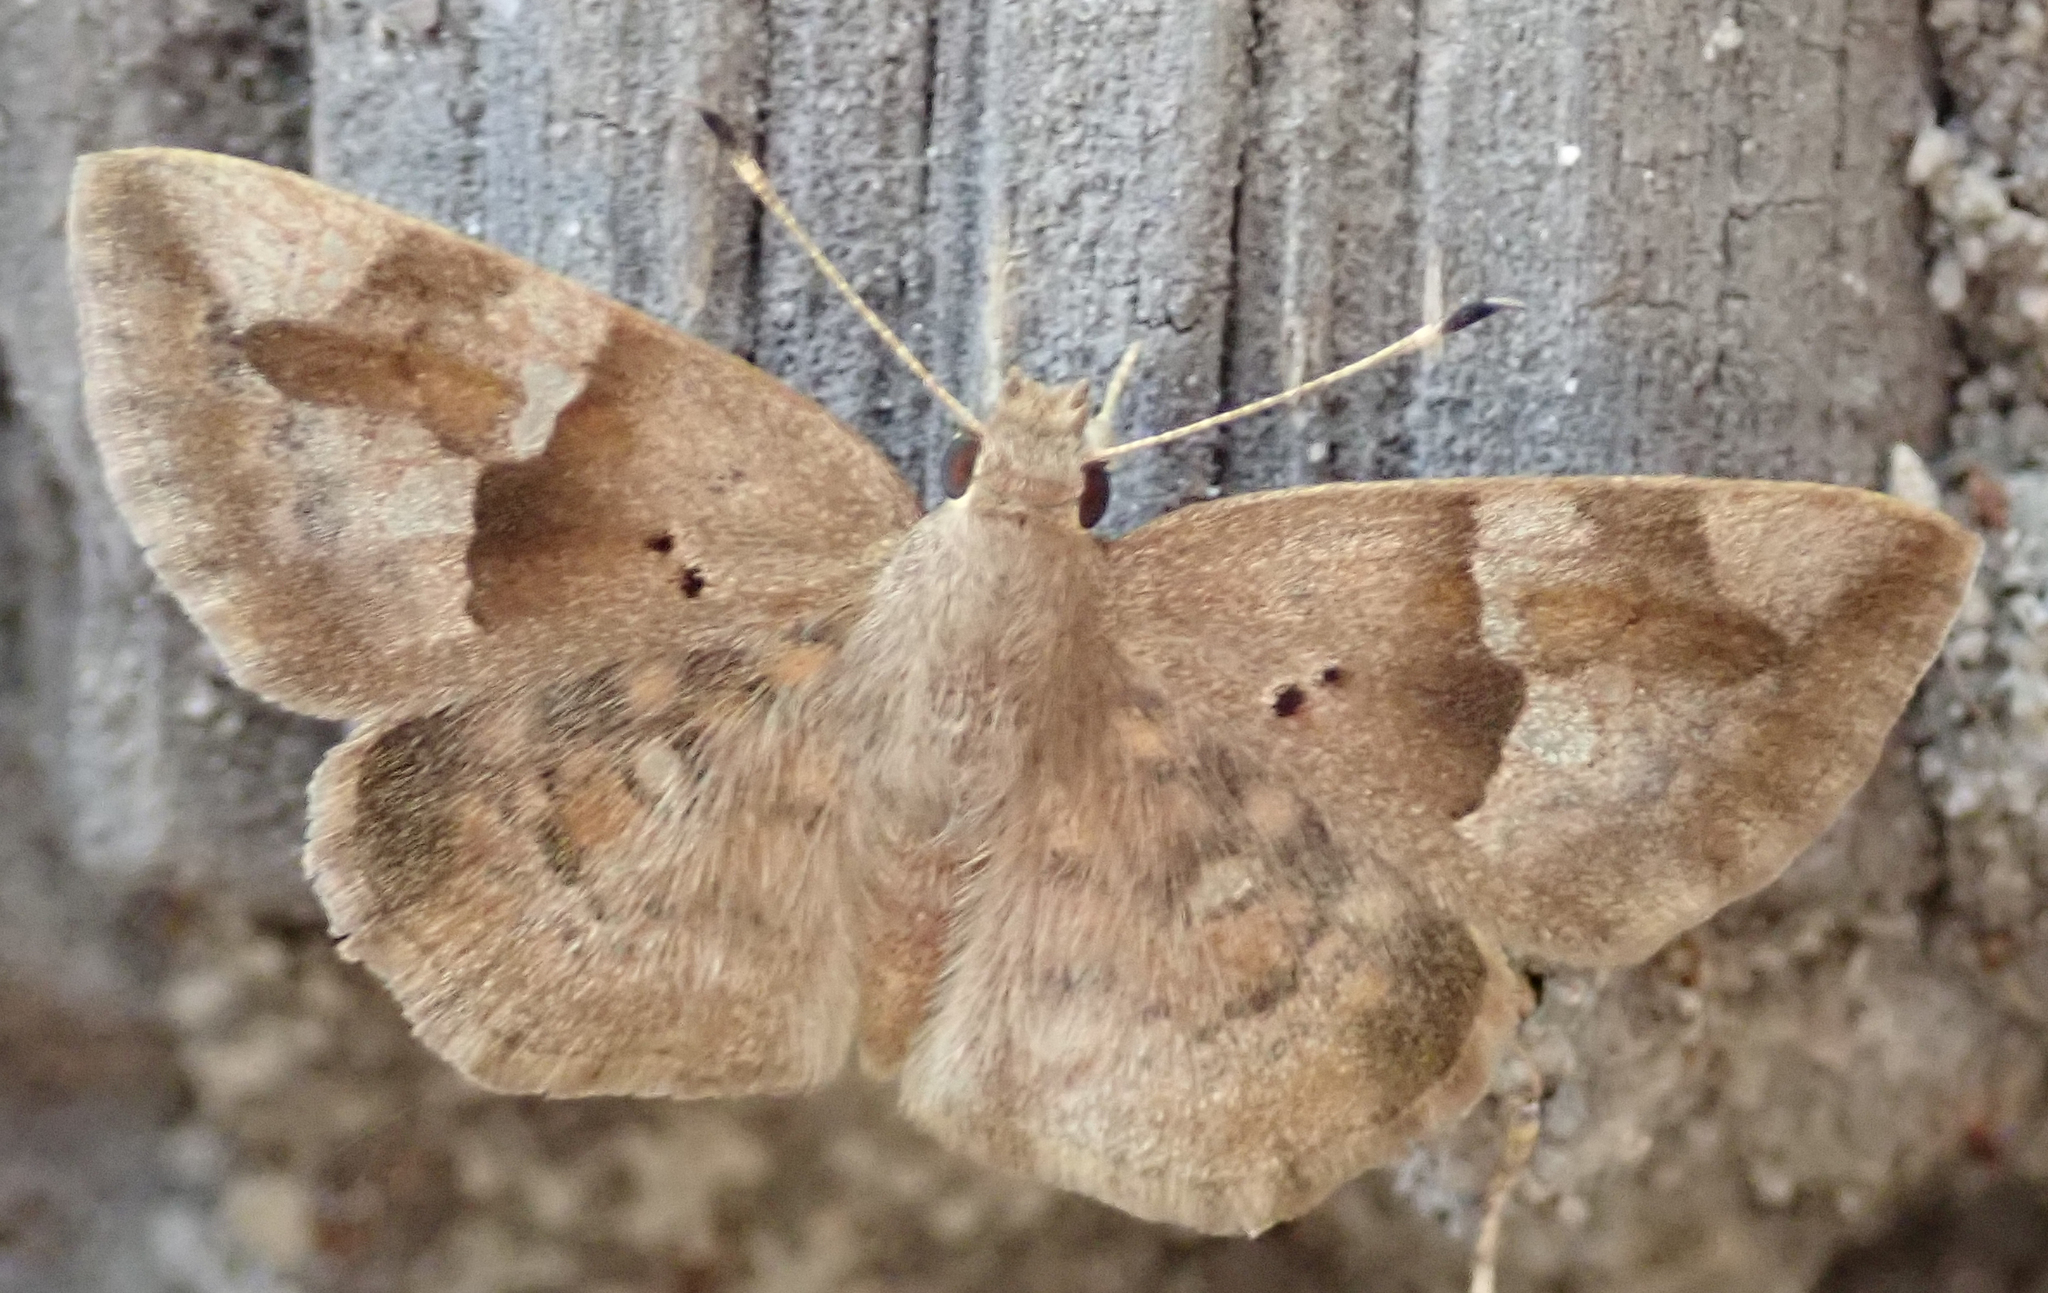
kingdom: Animalia
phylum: Arthropoda
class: Insecta
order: Lepidoptera
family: Hesperiidae
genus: Sarangesa
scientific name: Sarangesa motozi
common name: Forest elfin
